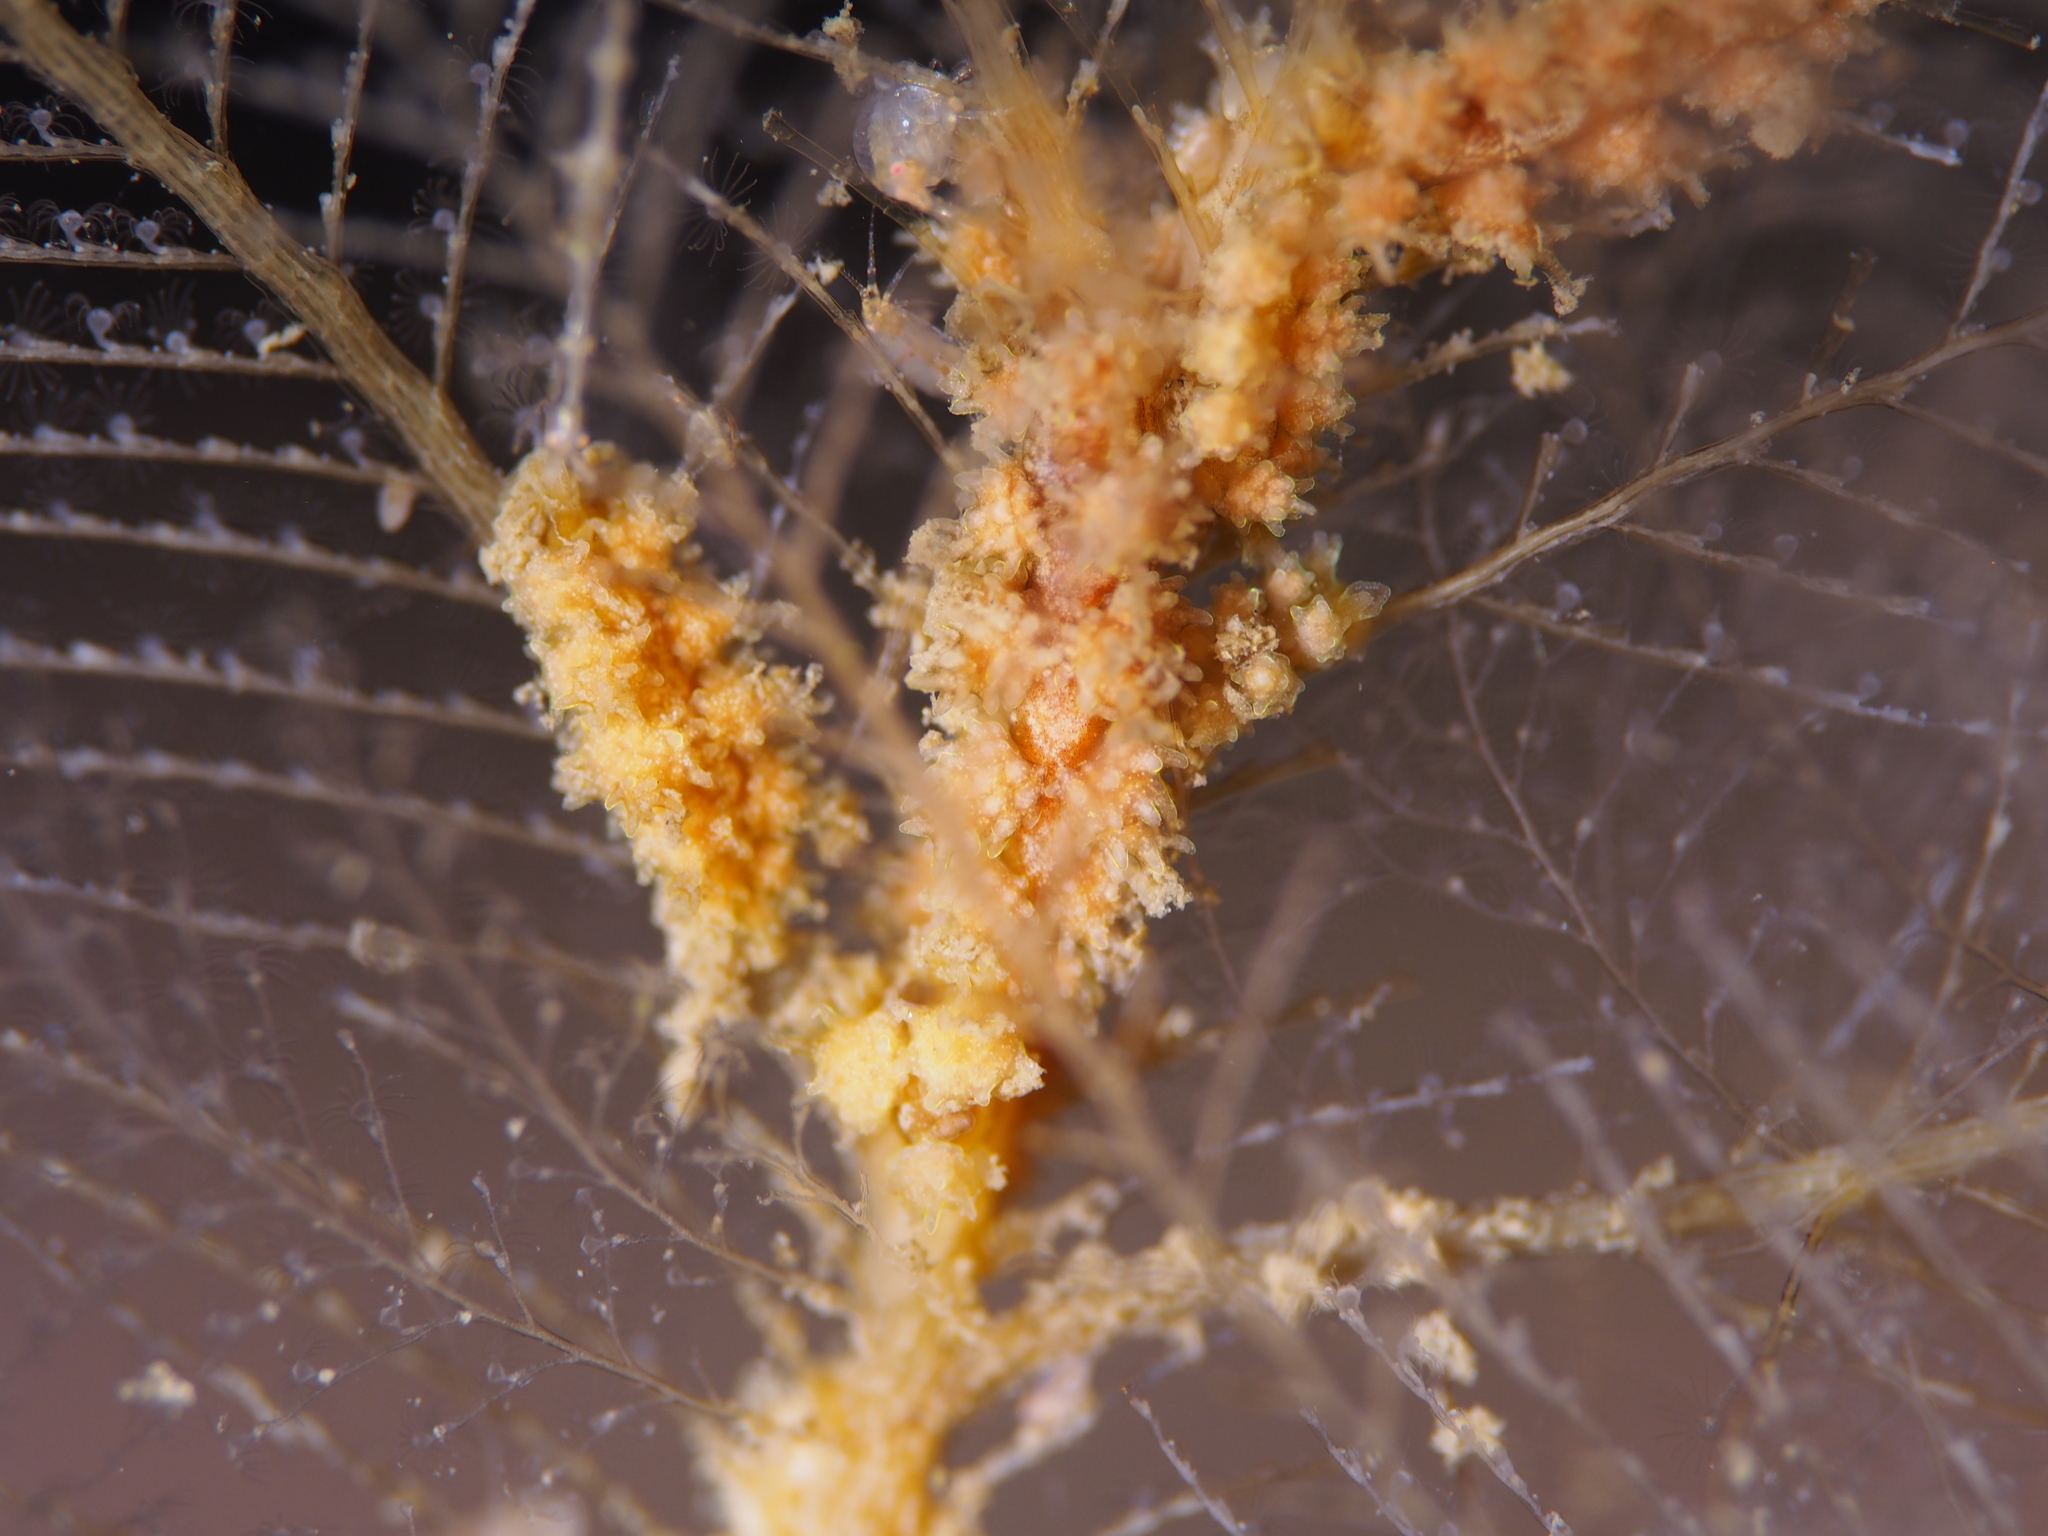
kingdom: Animalia
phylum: Mollusca
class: Gastropoda
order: Nudibranchia
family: Dotidae
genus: Doto
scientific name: Doto hystrix
